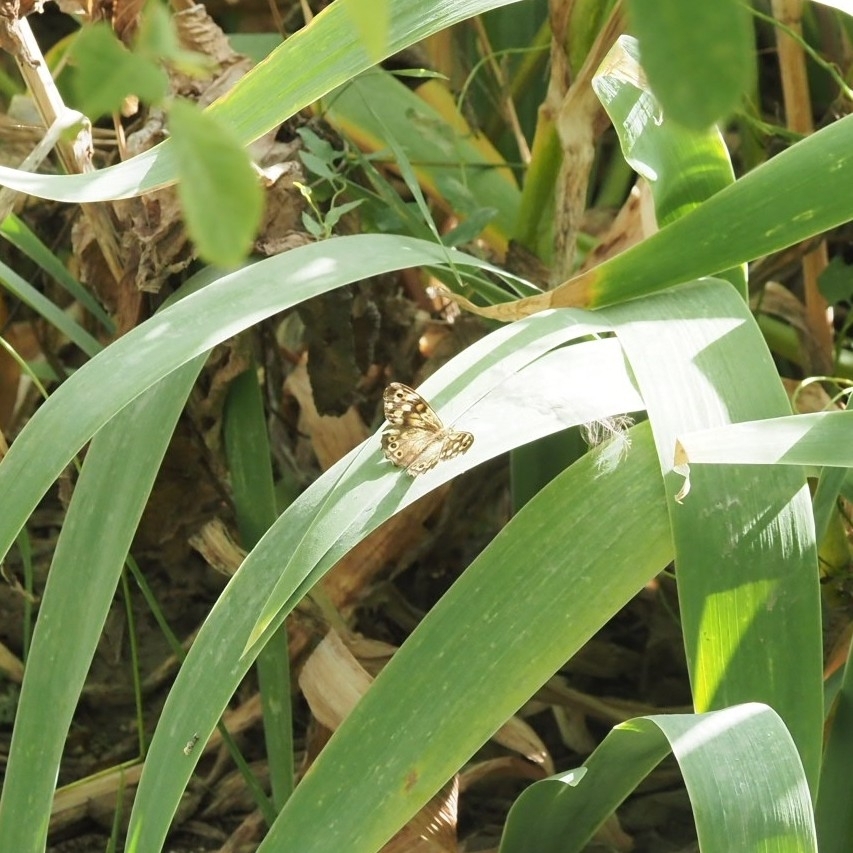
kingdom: Animalia
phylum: Arthropoda
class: Insecta
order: Lepidoptera
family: Nymphalidae
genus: Pararge
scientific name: Pararge aegeria
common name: Speckled wood
